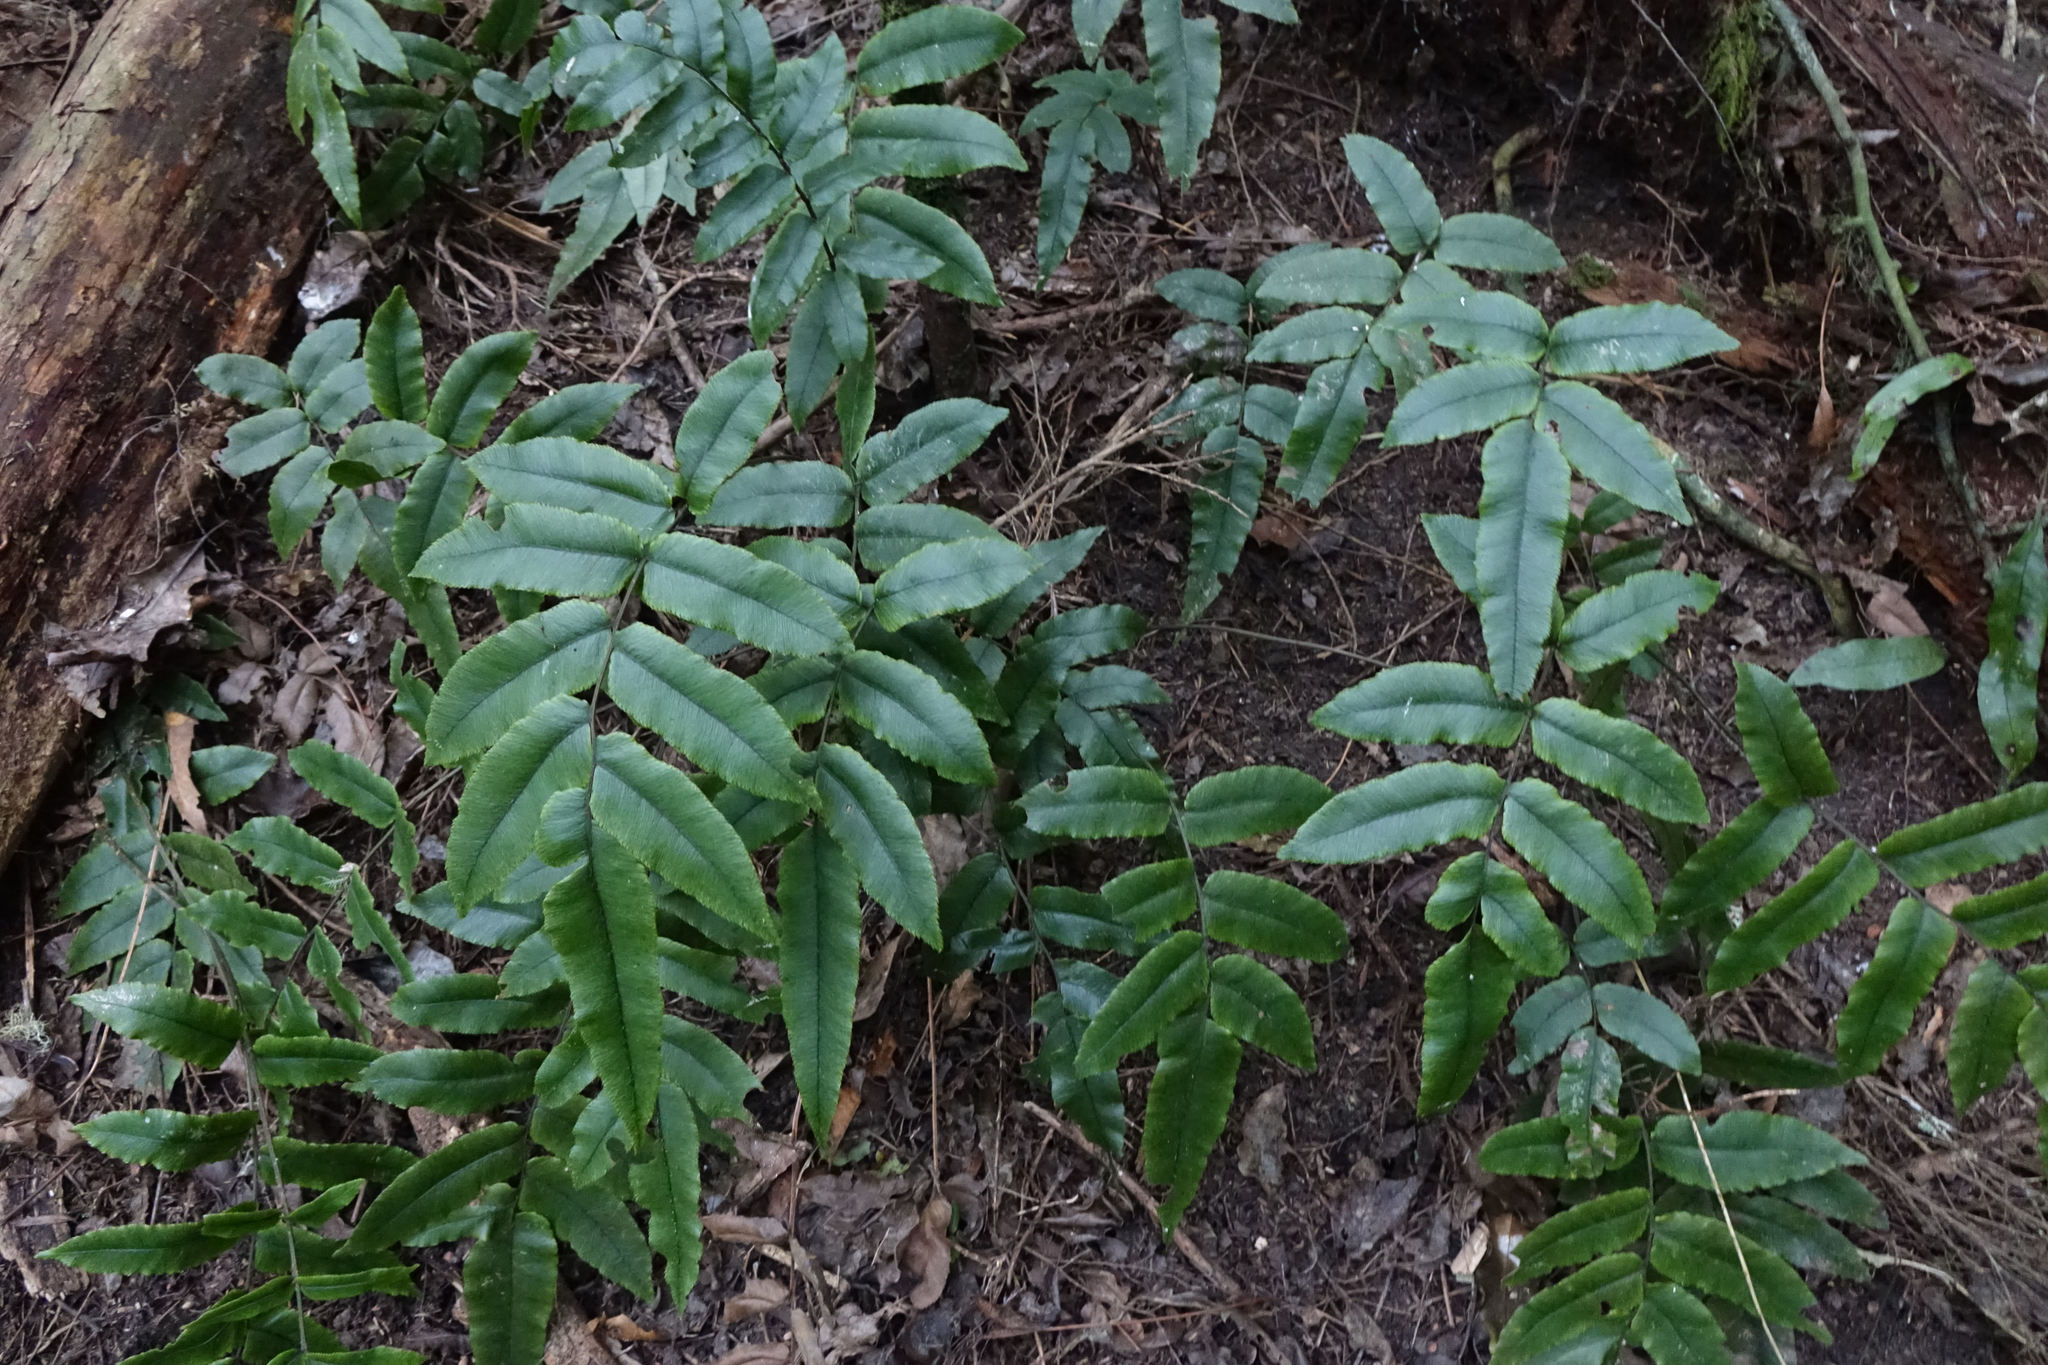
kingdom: Plantae
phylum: Tracheophyta
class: Polypodiopsida
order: Polypodiales
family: Blechnaceae
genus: Parablechnum
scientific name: Parablechnum procerum
